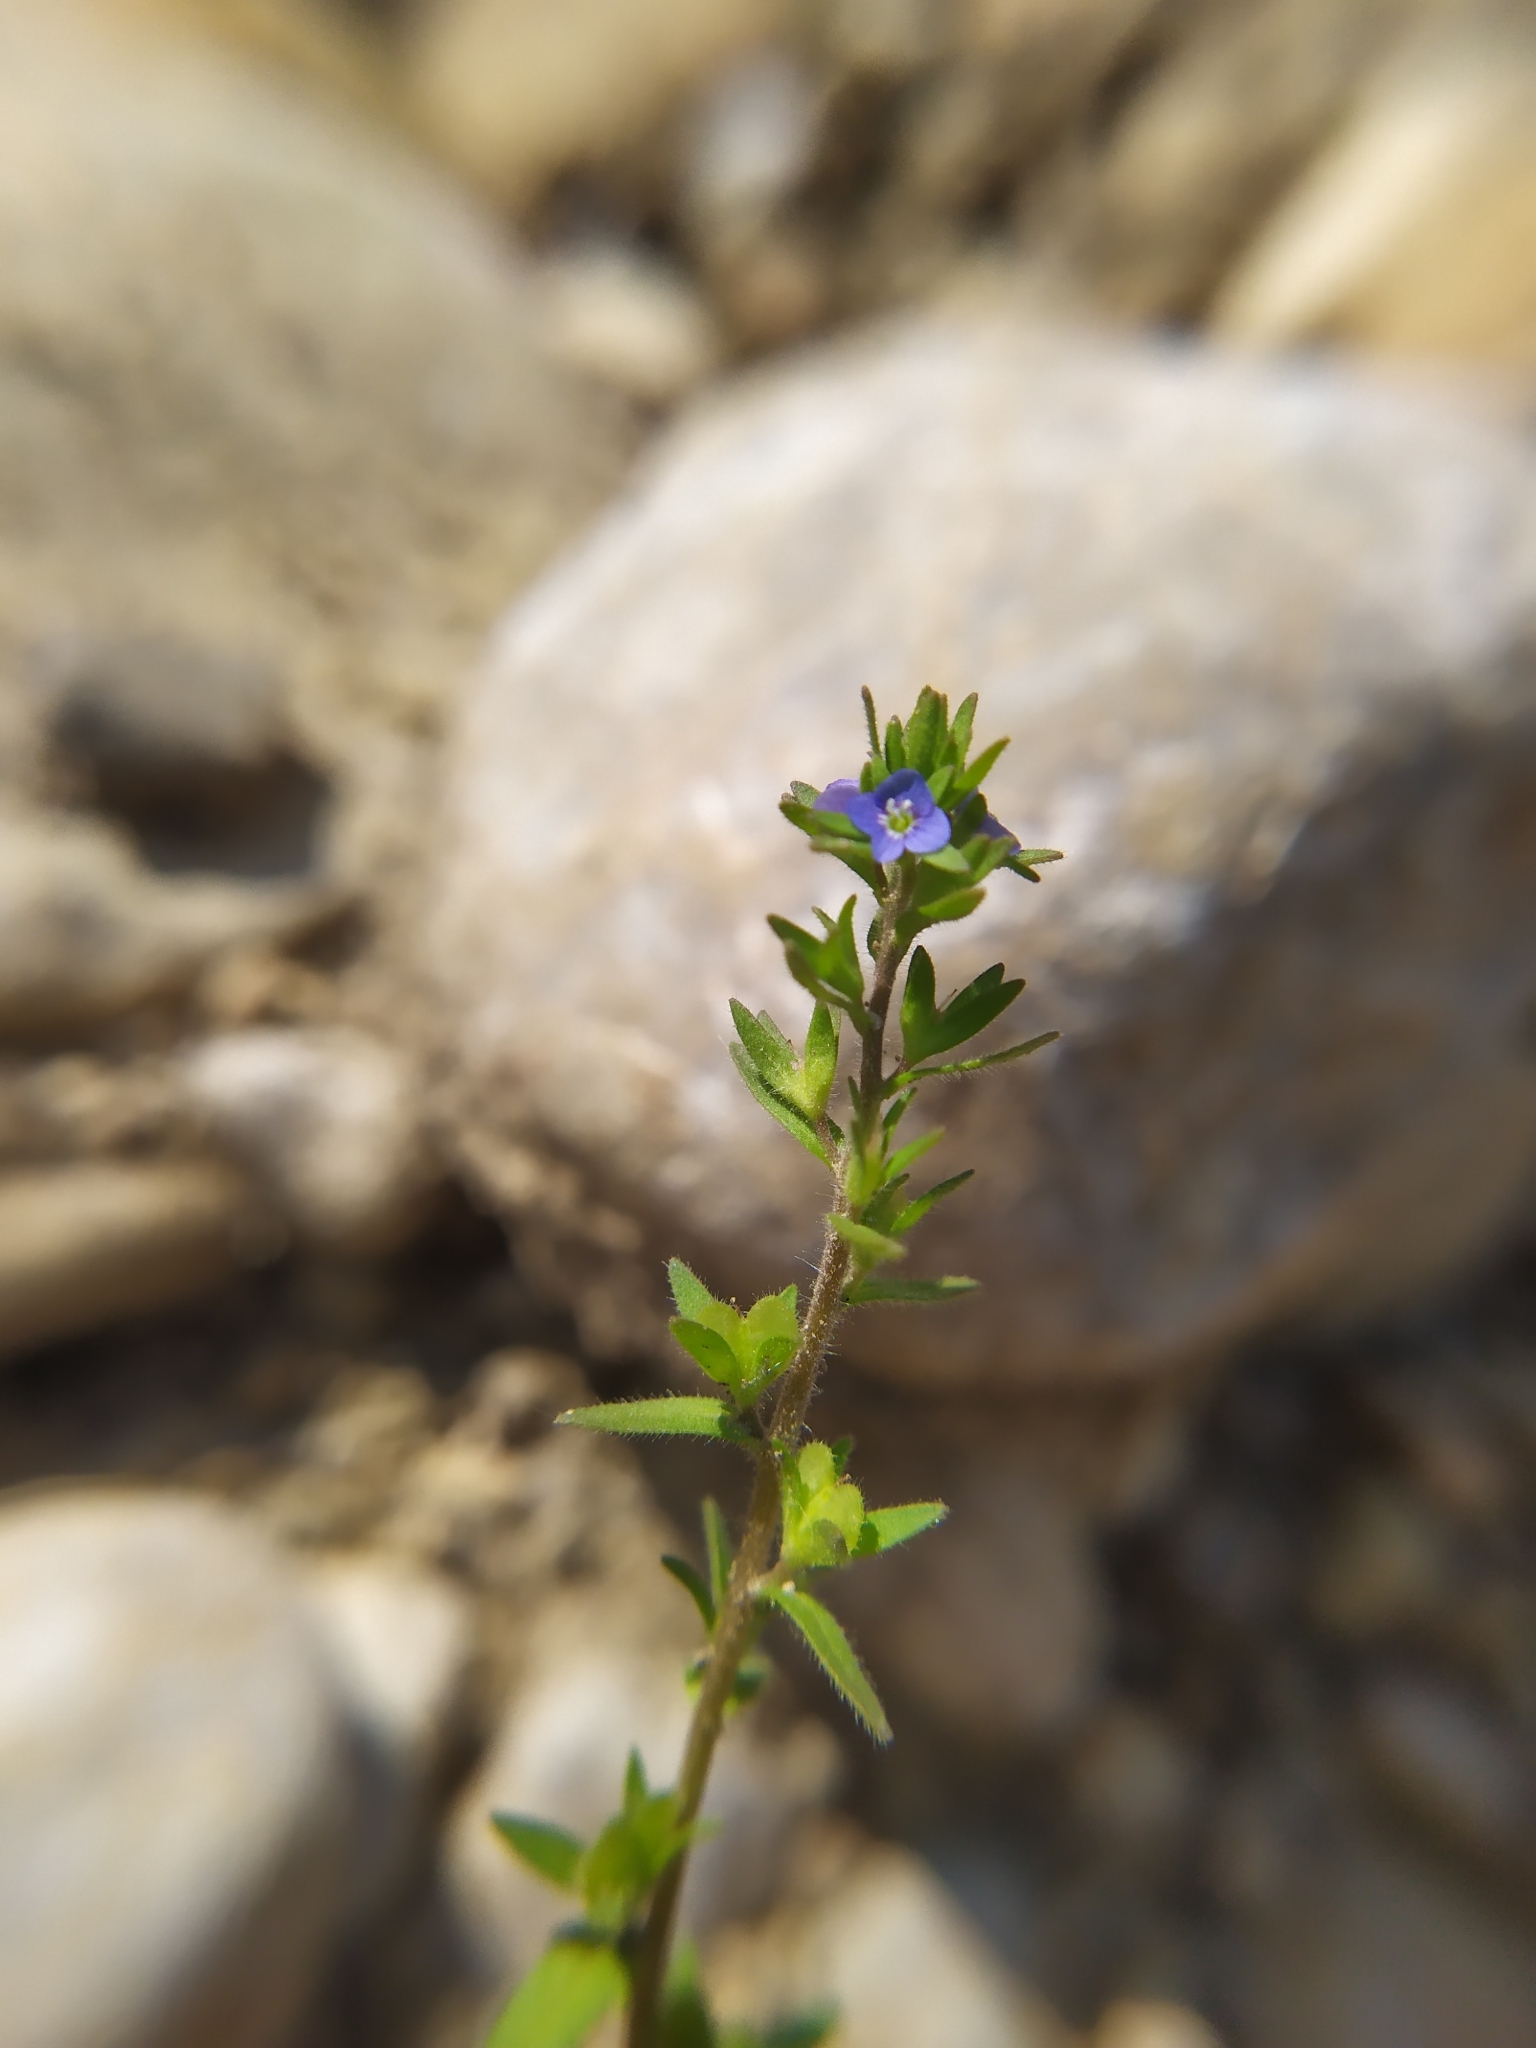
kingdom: Plantae
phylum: Tracheophyta
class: Magnoliopsida
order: Lamiales
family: Plantaginaceae
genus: Veronica
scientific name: Veronica arvensis
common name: Corn speedwell
